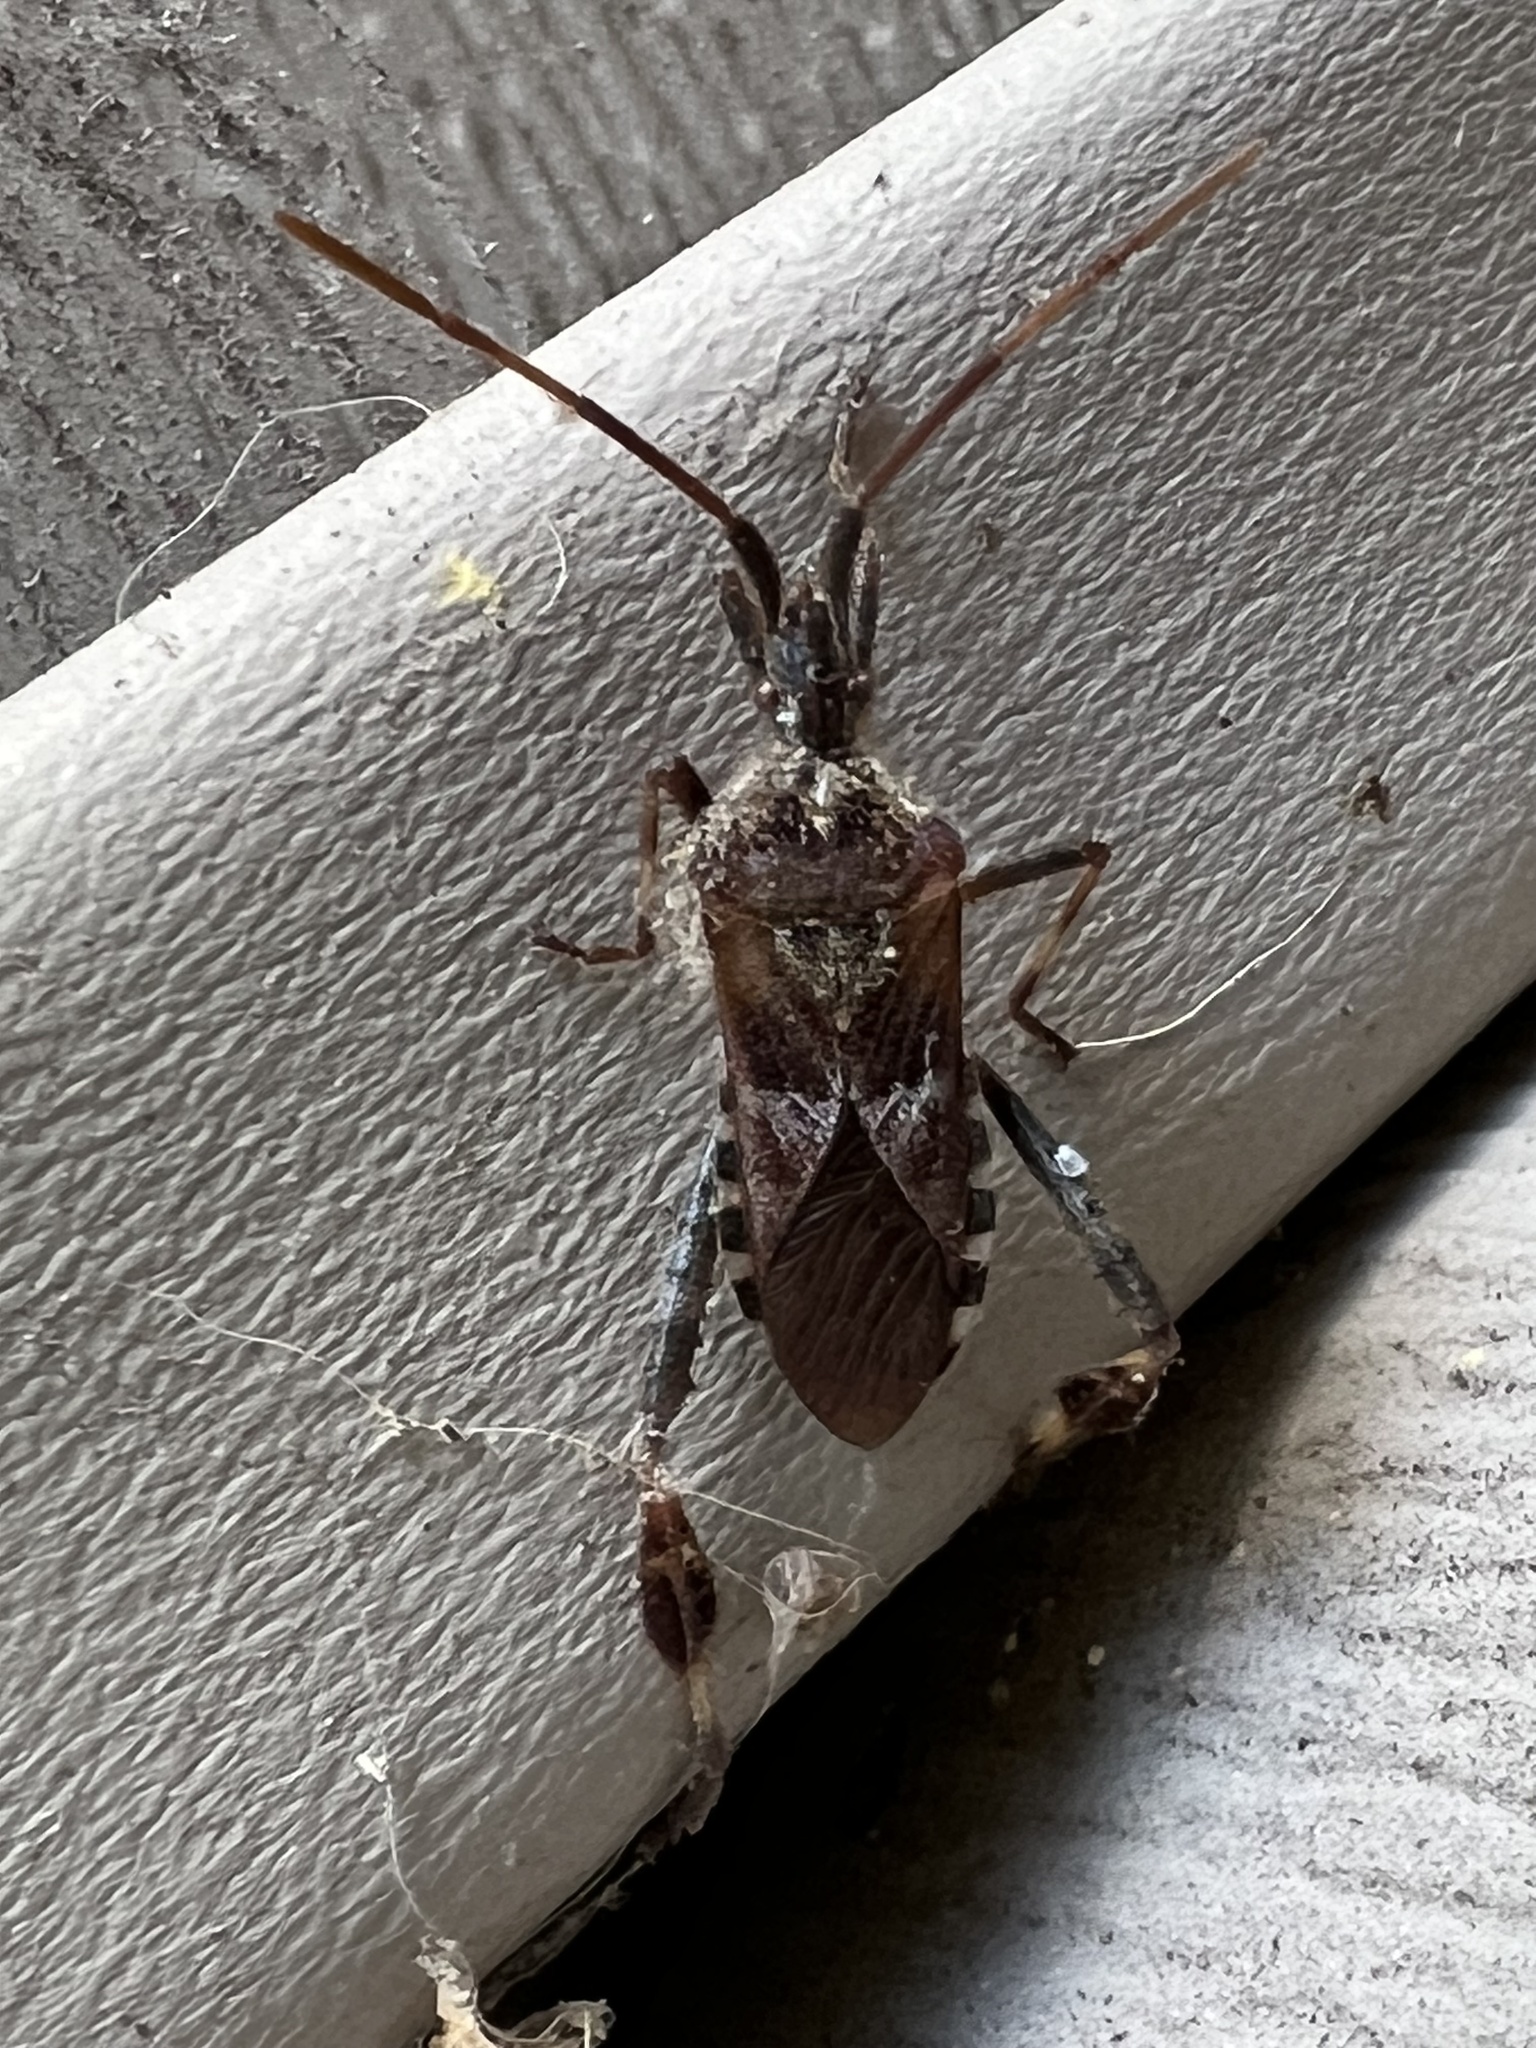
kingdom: Animalia
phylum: Arthropoda
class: Insecta
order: Hemiptera
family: Coreidae
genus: Leptoglossus
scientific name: Leptoglossus occidentalis
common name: Western conifer-seed bug
